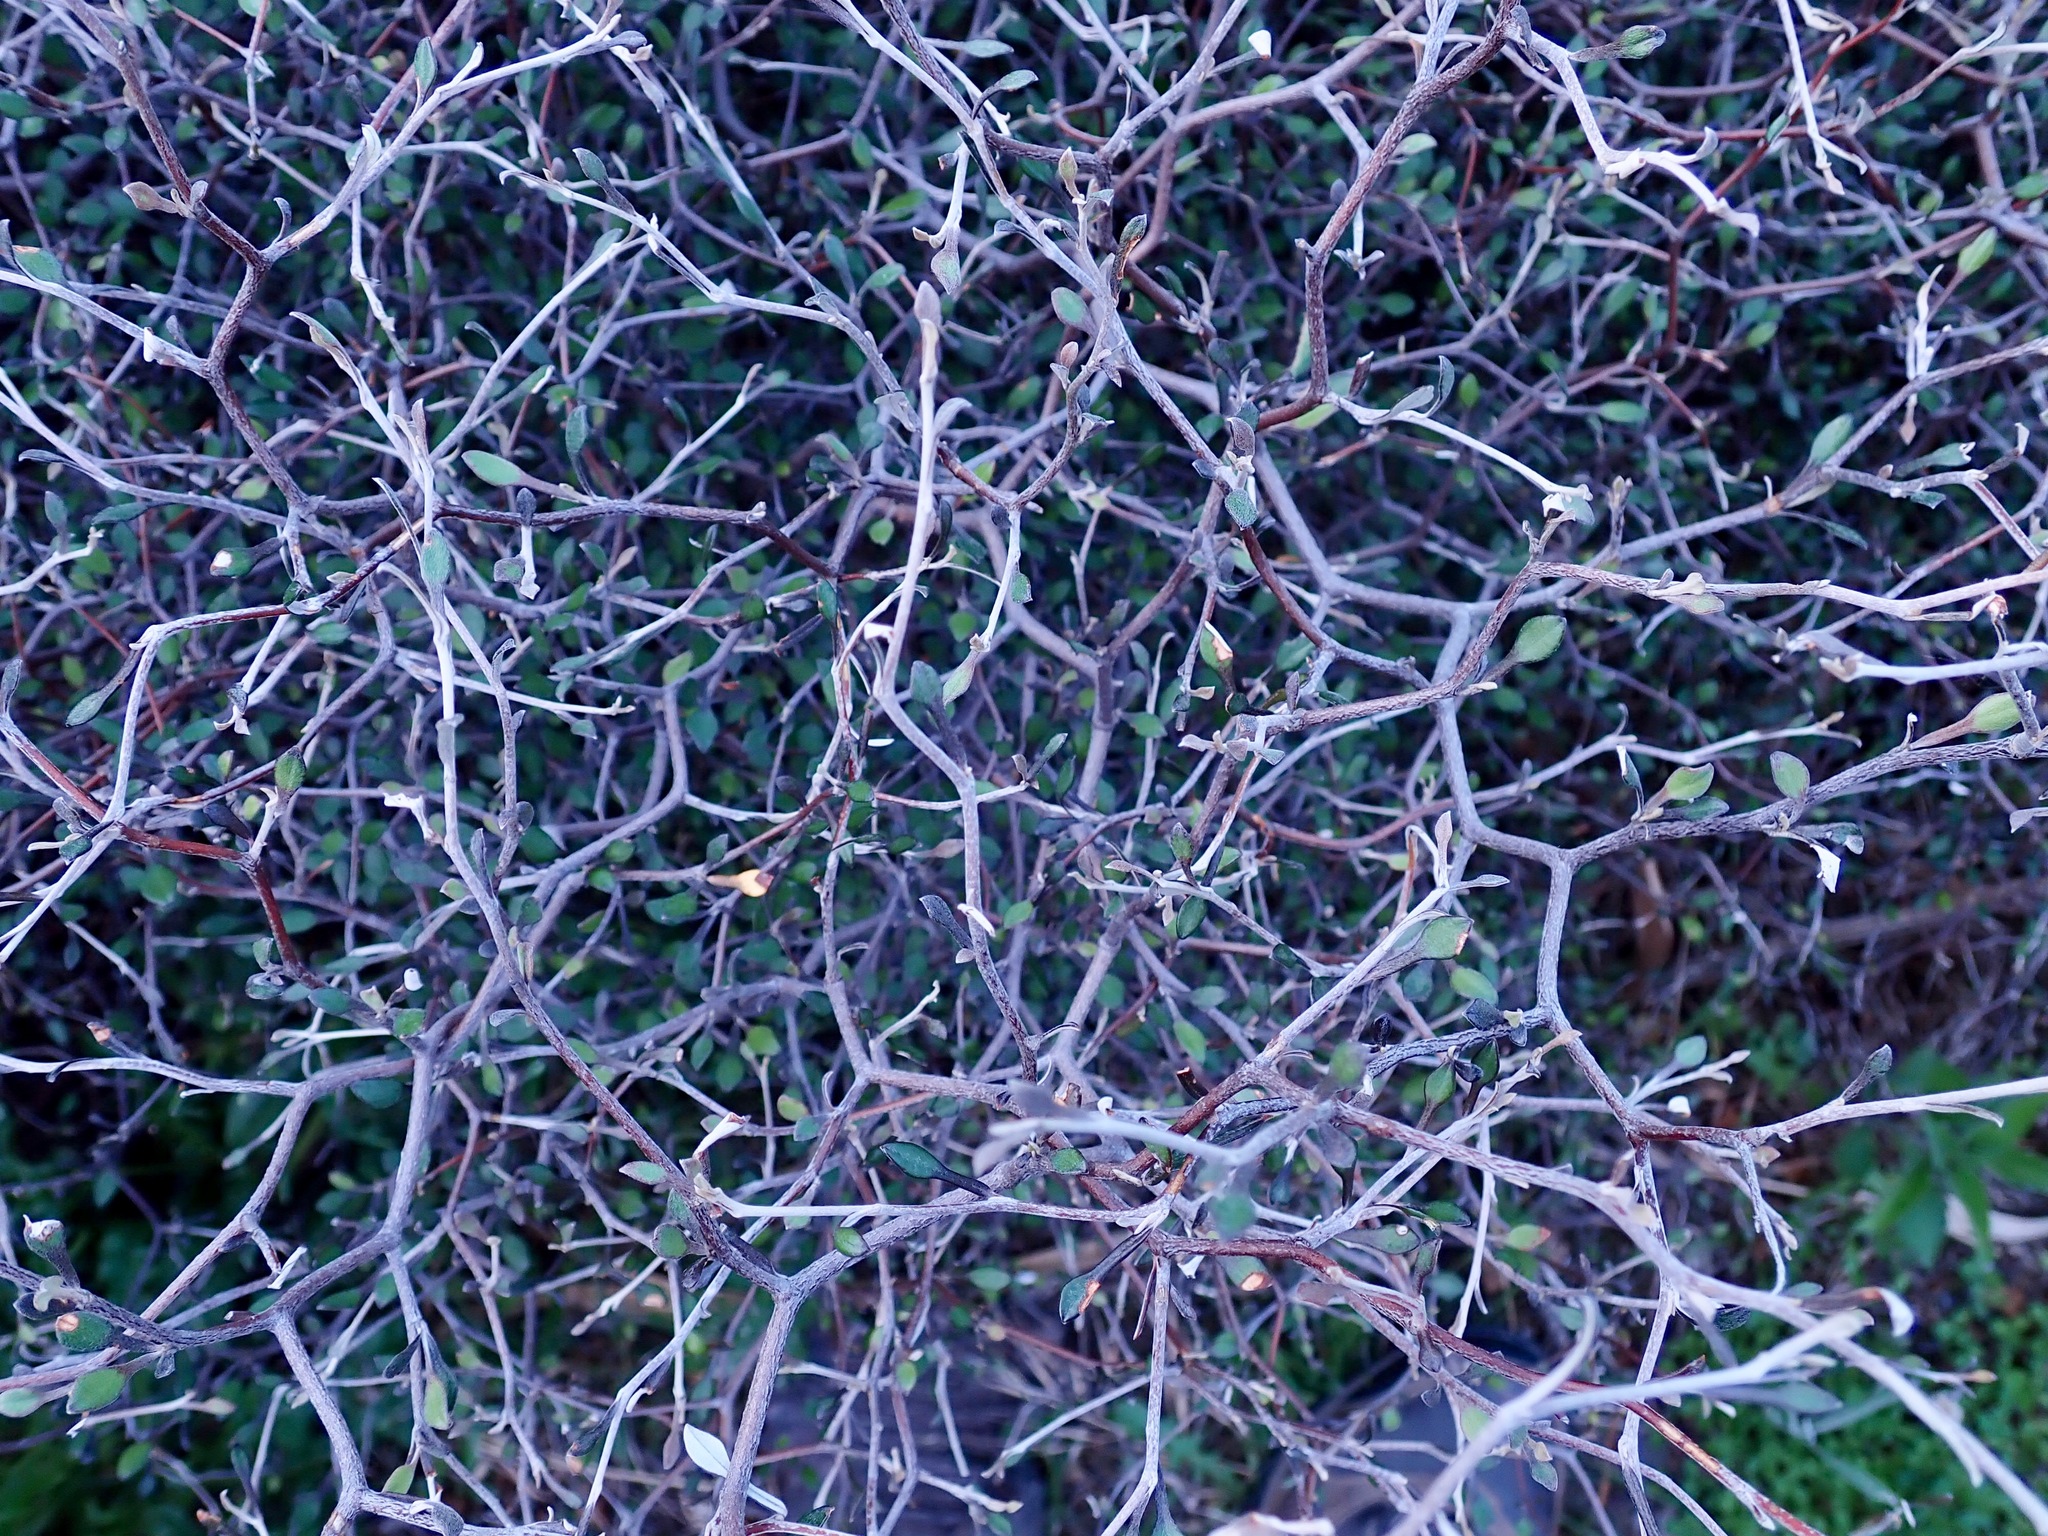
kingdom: Plantae
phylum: Tracheophyta
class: Magnoliopsida
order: Asterales
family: Argophyllaceae
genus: Corokia
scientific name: Corokia cotoneaster
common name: Wire nettingbush
